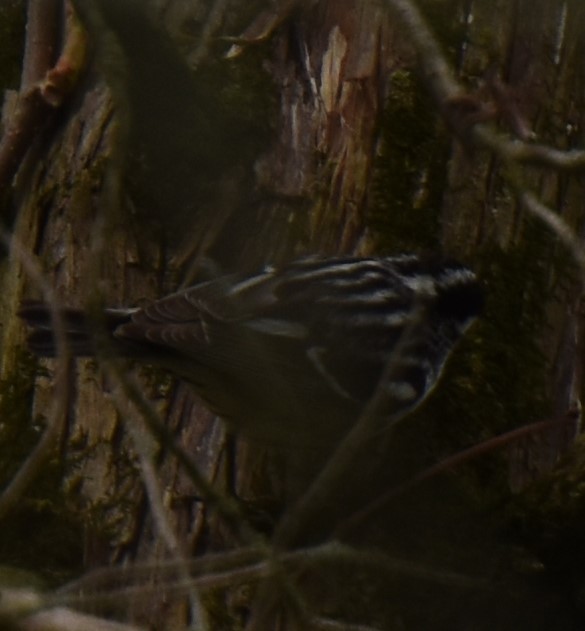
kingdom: Animalia
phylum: Chordata
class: Aves
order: Passeriformes
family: Parulidae
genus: Mniotilta
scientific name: Mniotilta varia
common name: Black-and-white warbler
